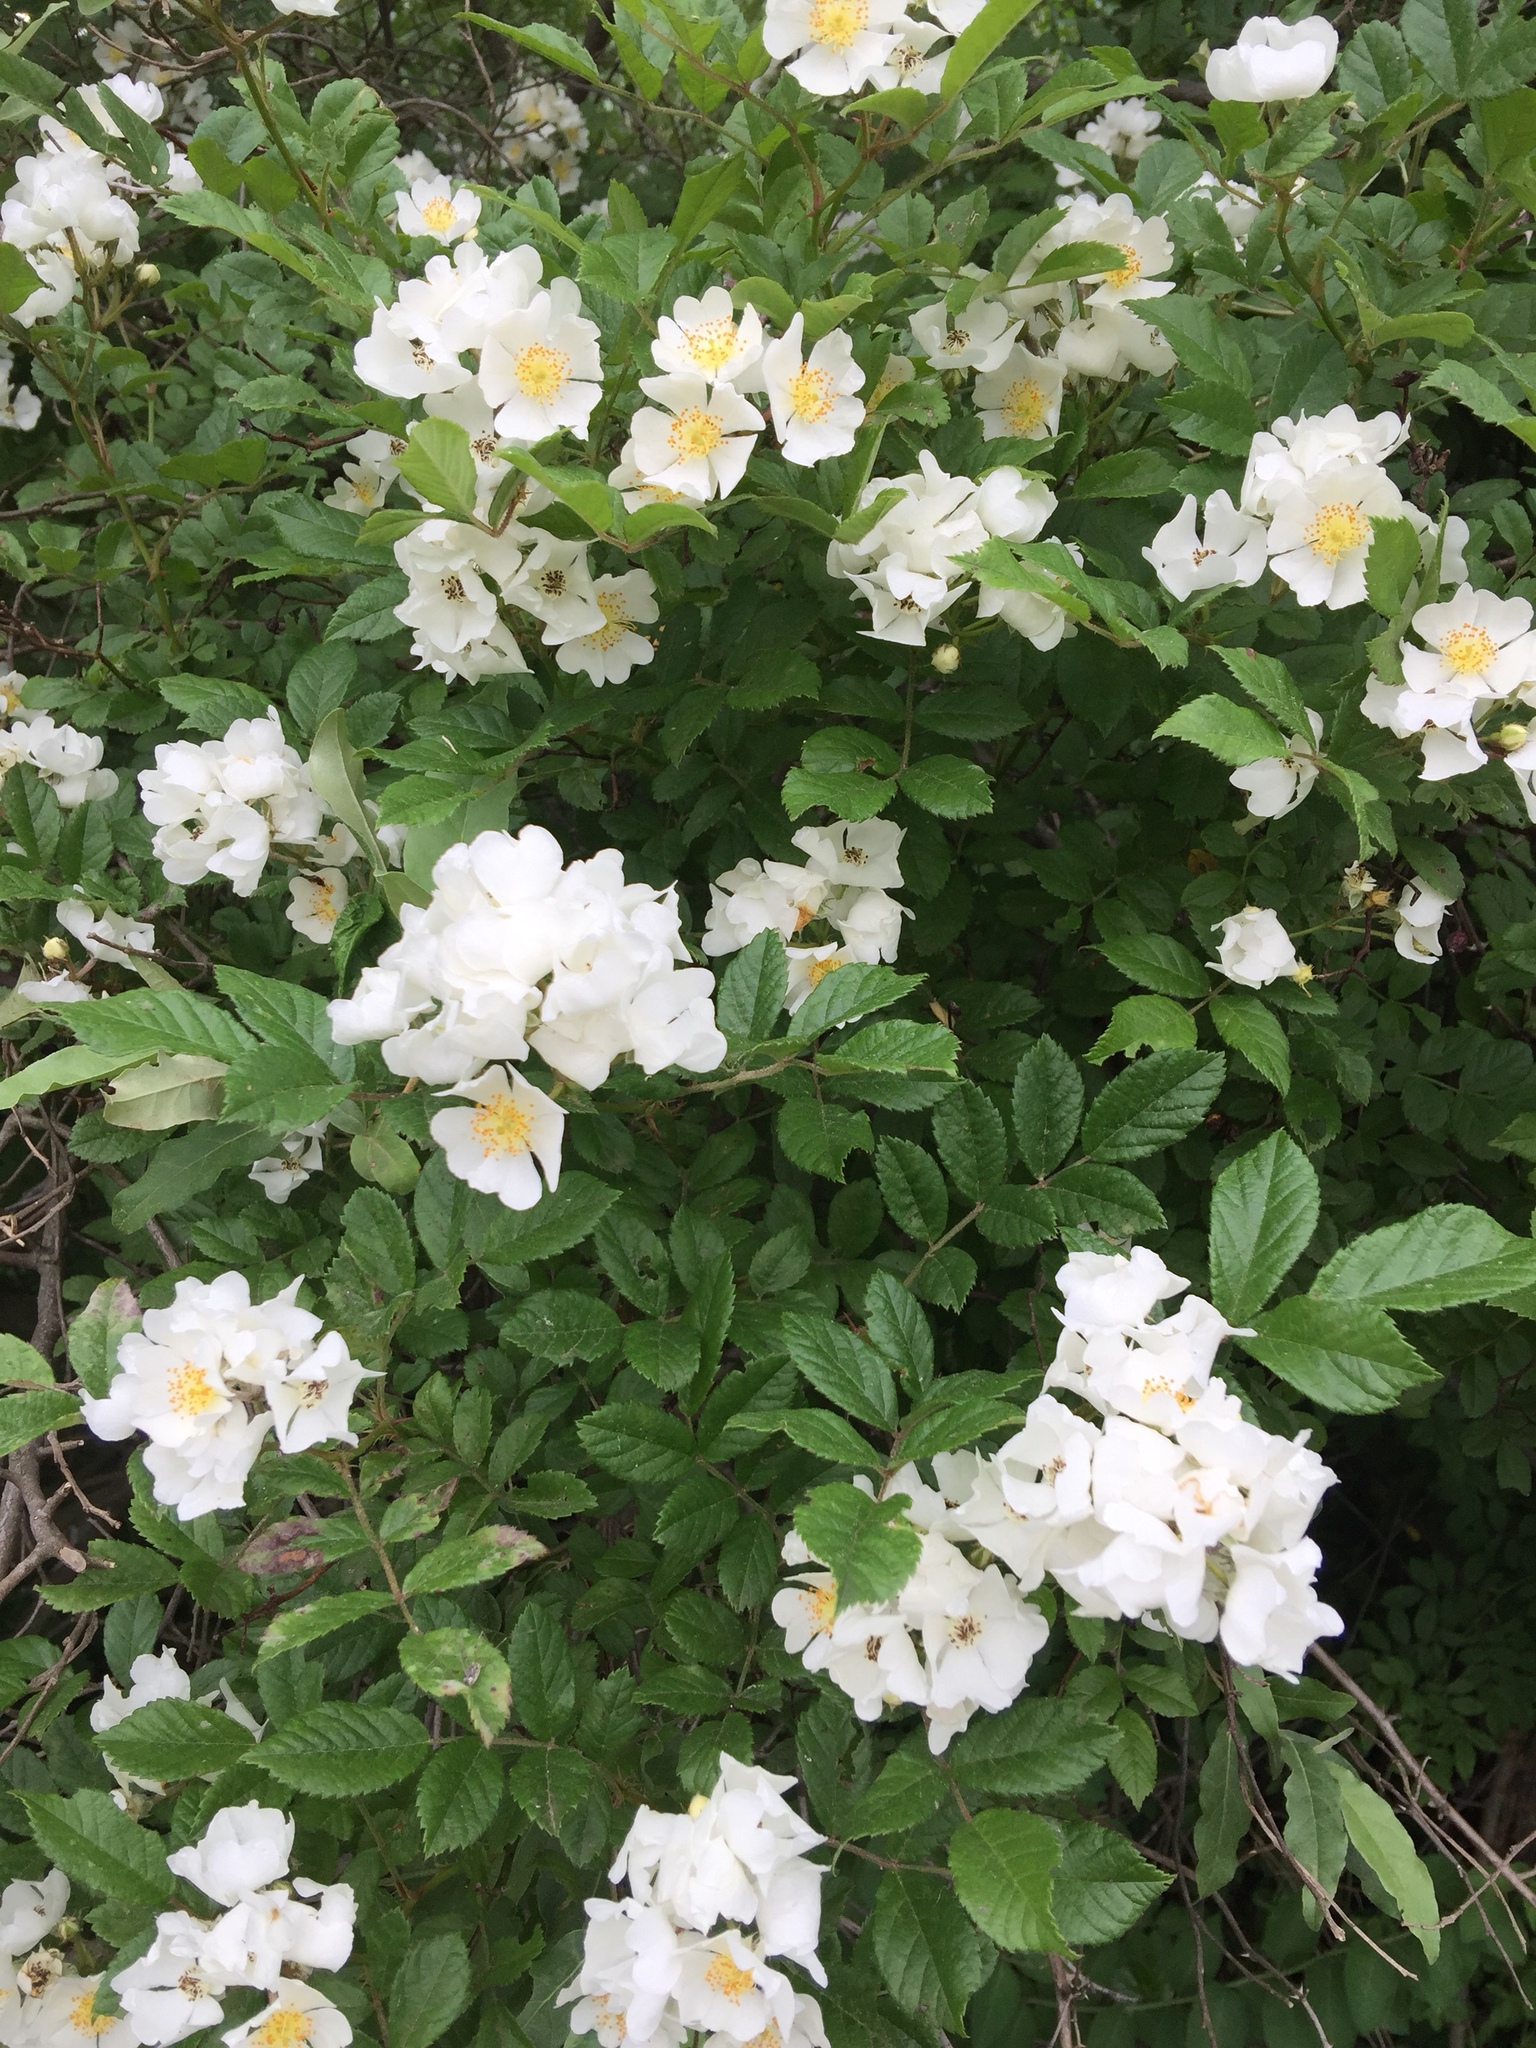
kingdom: Plantae
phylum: Tracheophyta
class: Magnoliopsida
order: Rosales
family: Rosaceae
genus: Rosa
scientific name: Rosa multiflora
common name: Multiflora rose
